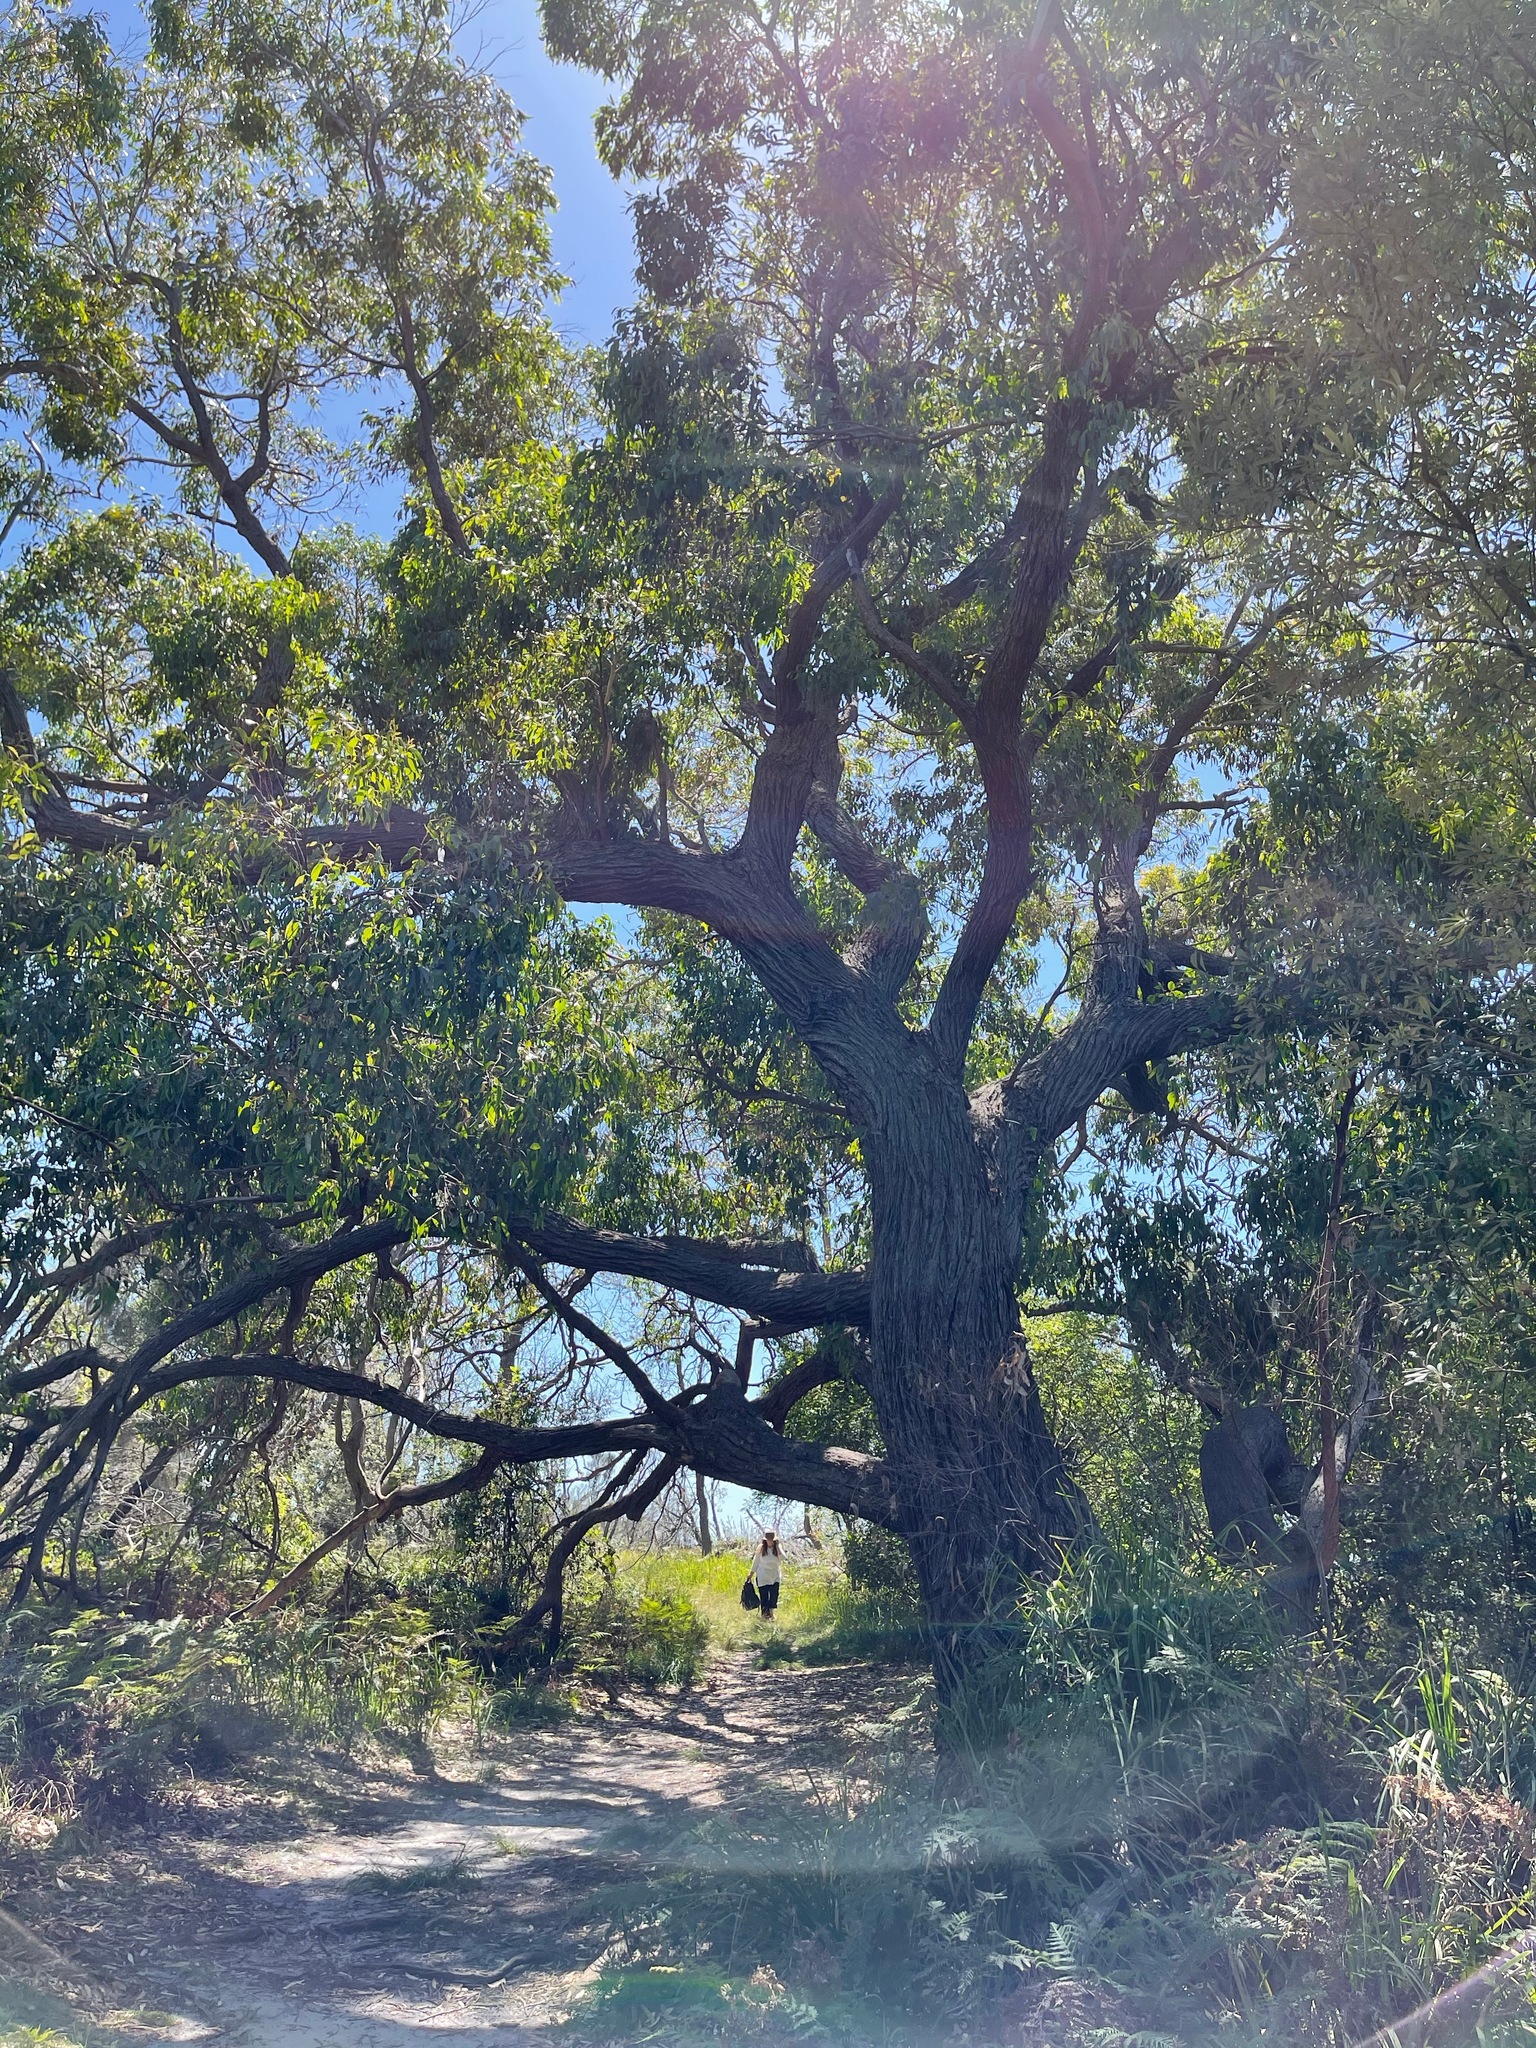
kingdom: Plantae
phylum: Tracheophyta
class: Magnoliopsida
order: Myrtales
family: Myrtaceae
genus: Eucalyptus
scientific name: Eucalyptus sieberi
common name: Black-ash
